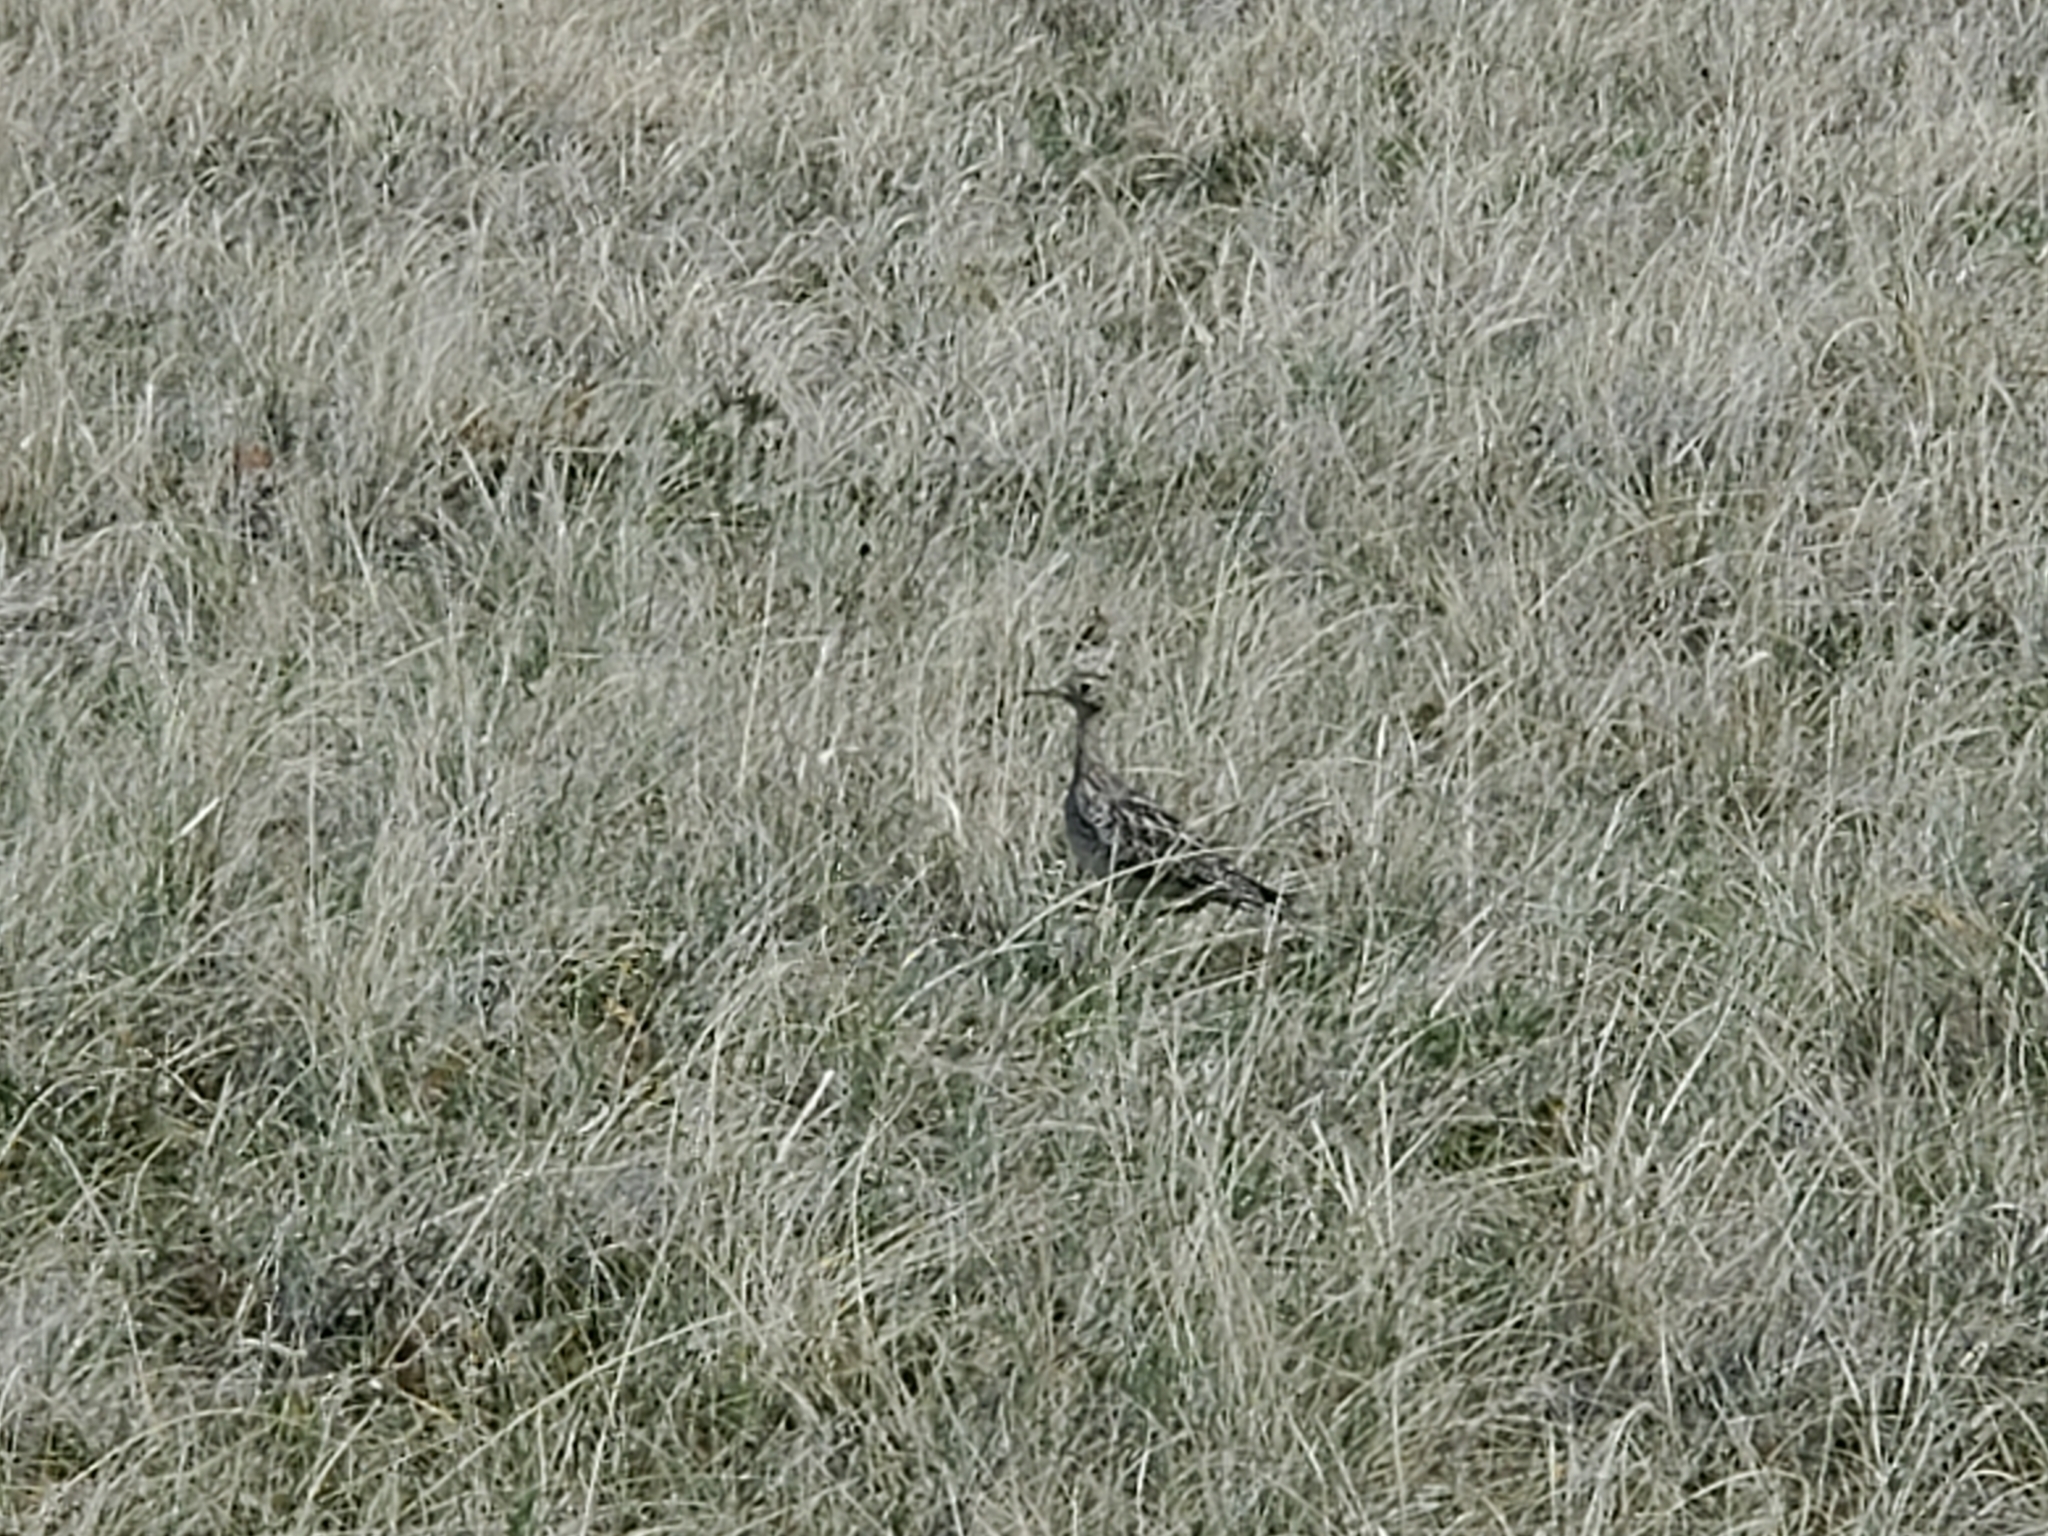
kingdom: Animalia
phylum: Chordata
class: Aves
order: Charadriiformes
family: Scolopacidae
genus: Bartramia
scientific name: Bartramia longicauda
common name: Upland sandpiper
